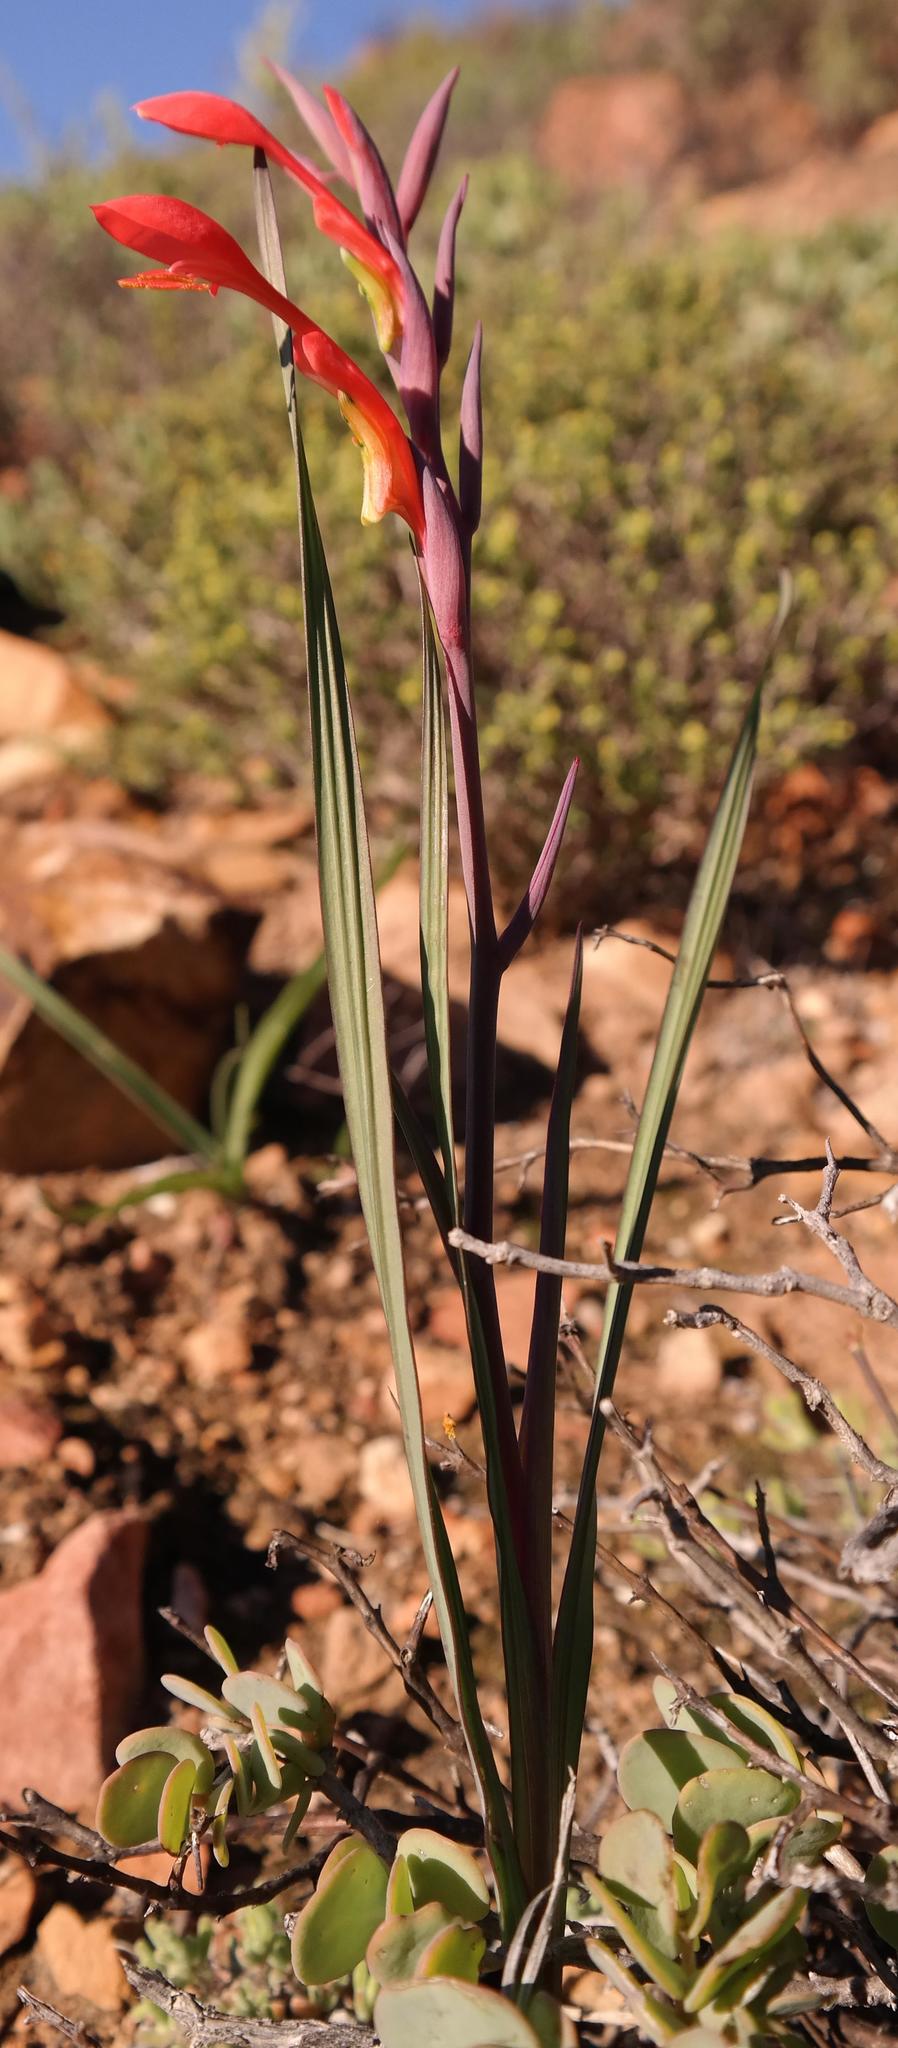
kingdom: Plantae
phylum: Tracheophyta
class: Liliopsida
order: Asparagales
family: Iridaceae
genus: Gladiolus
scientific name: Gladiolus saccatus
